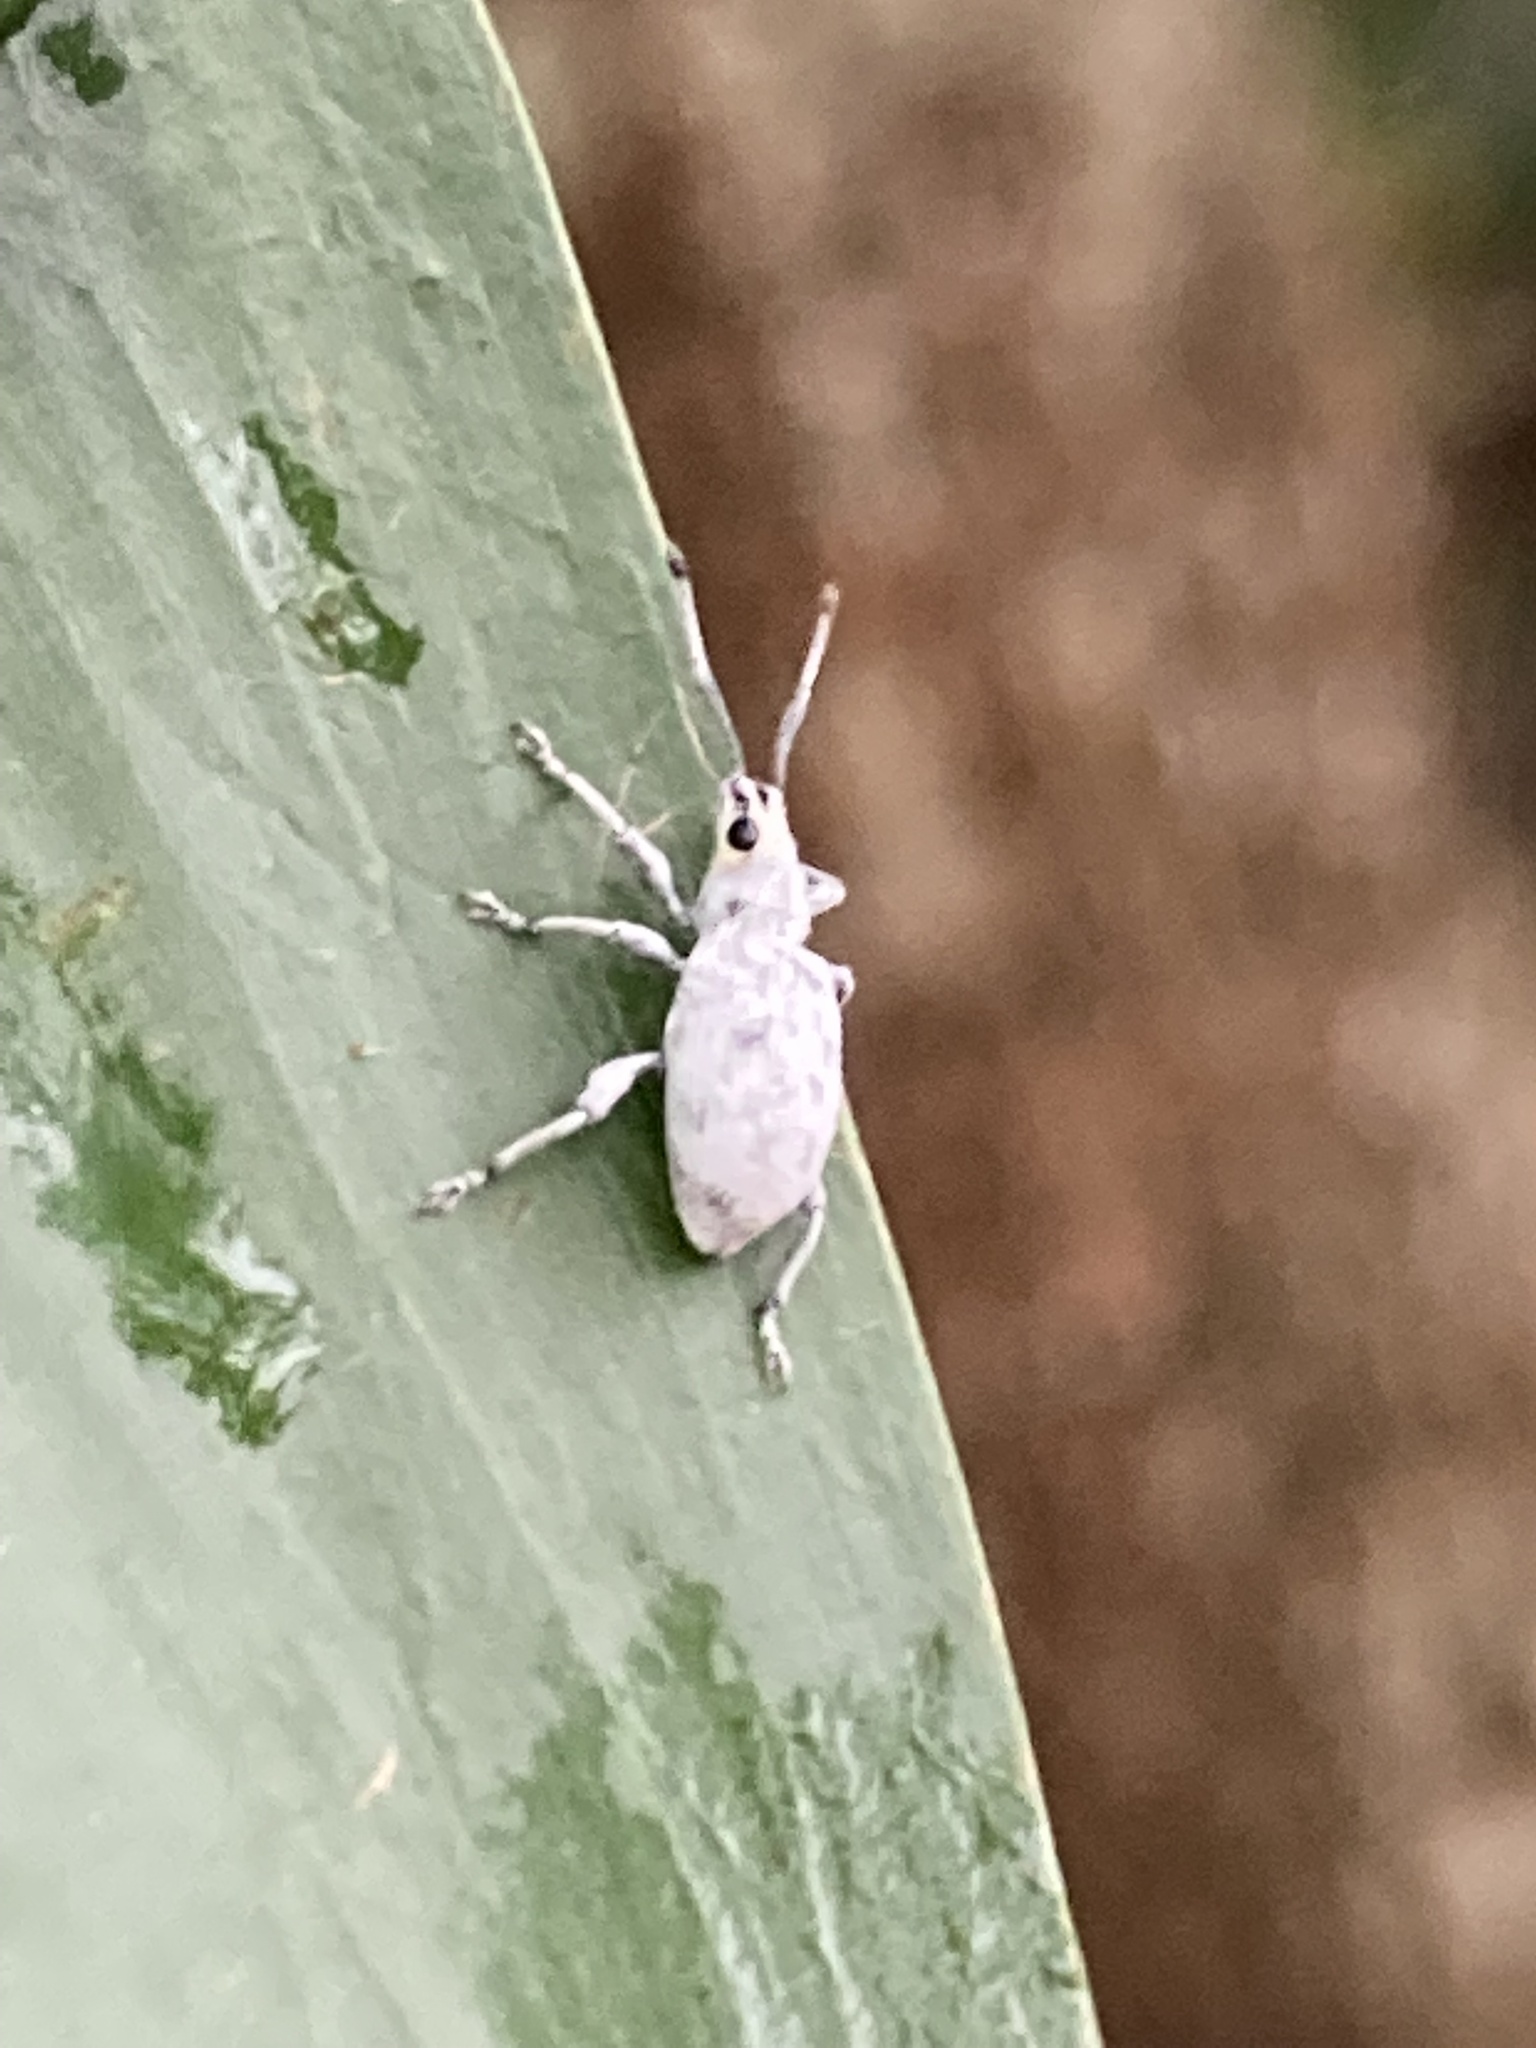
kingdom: Animalia
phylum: Arthropoda
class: Insecta
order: Coleoptera
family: Curculionidae
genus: Myllocerus
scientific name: Myllocerus undecimpustulatus
